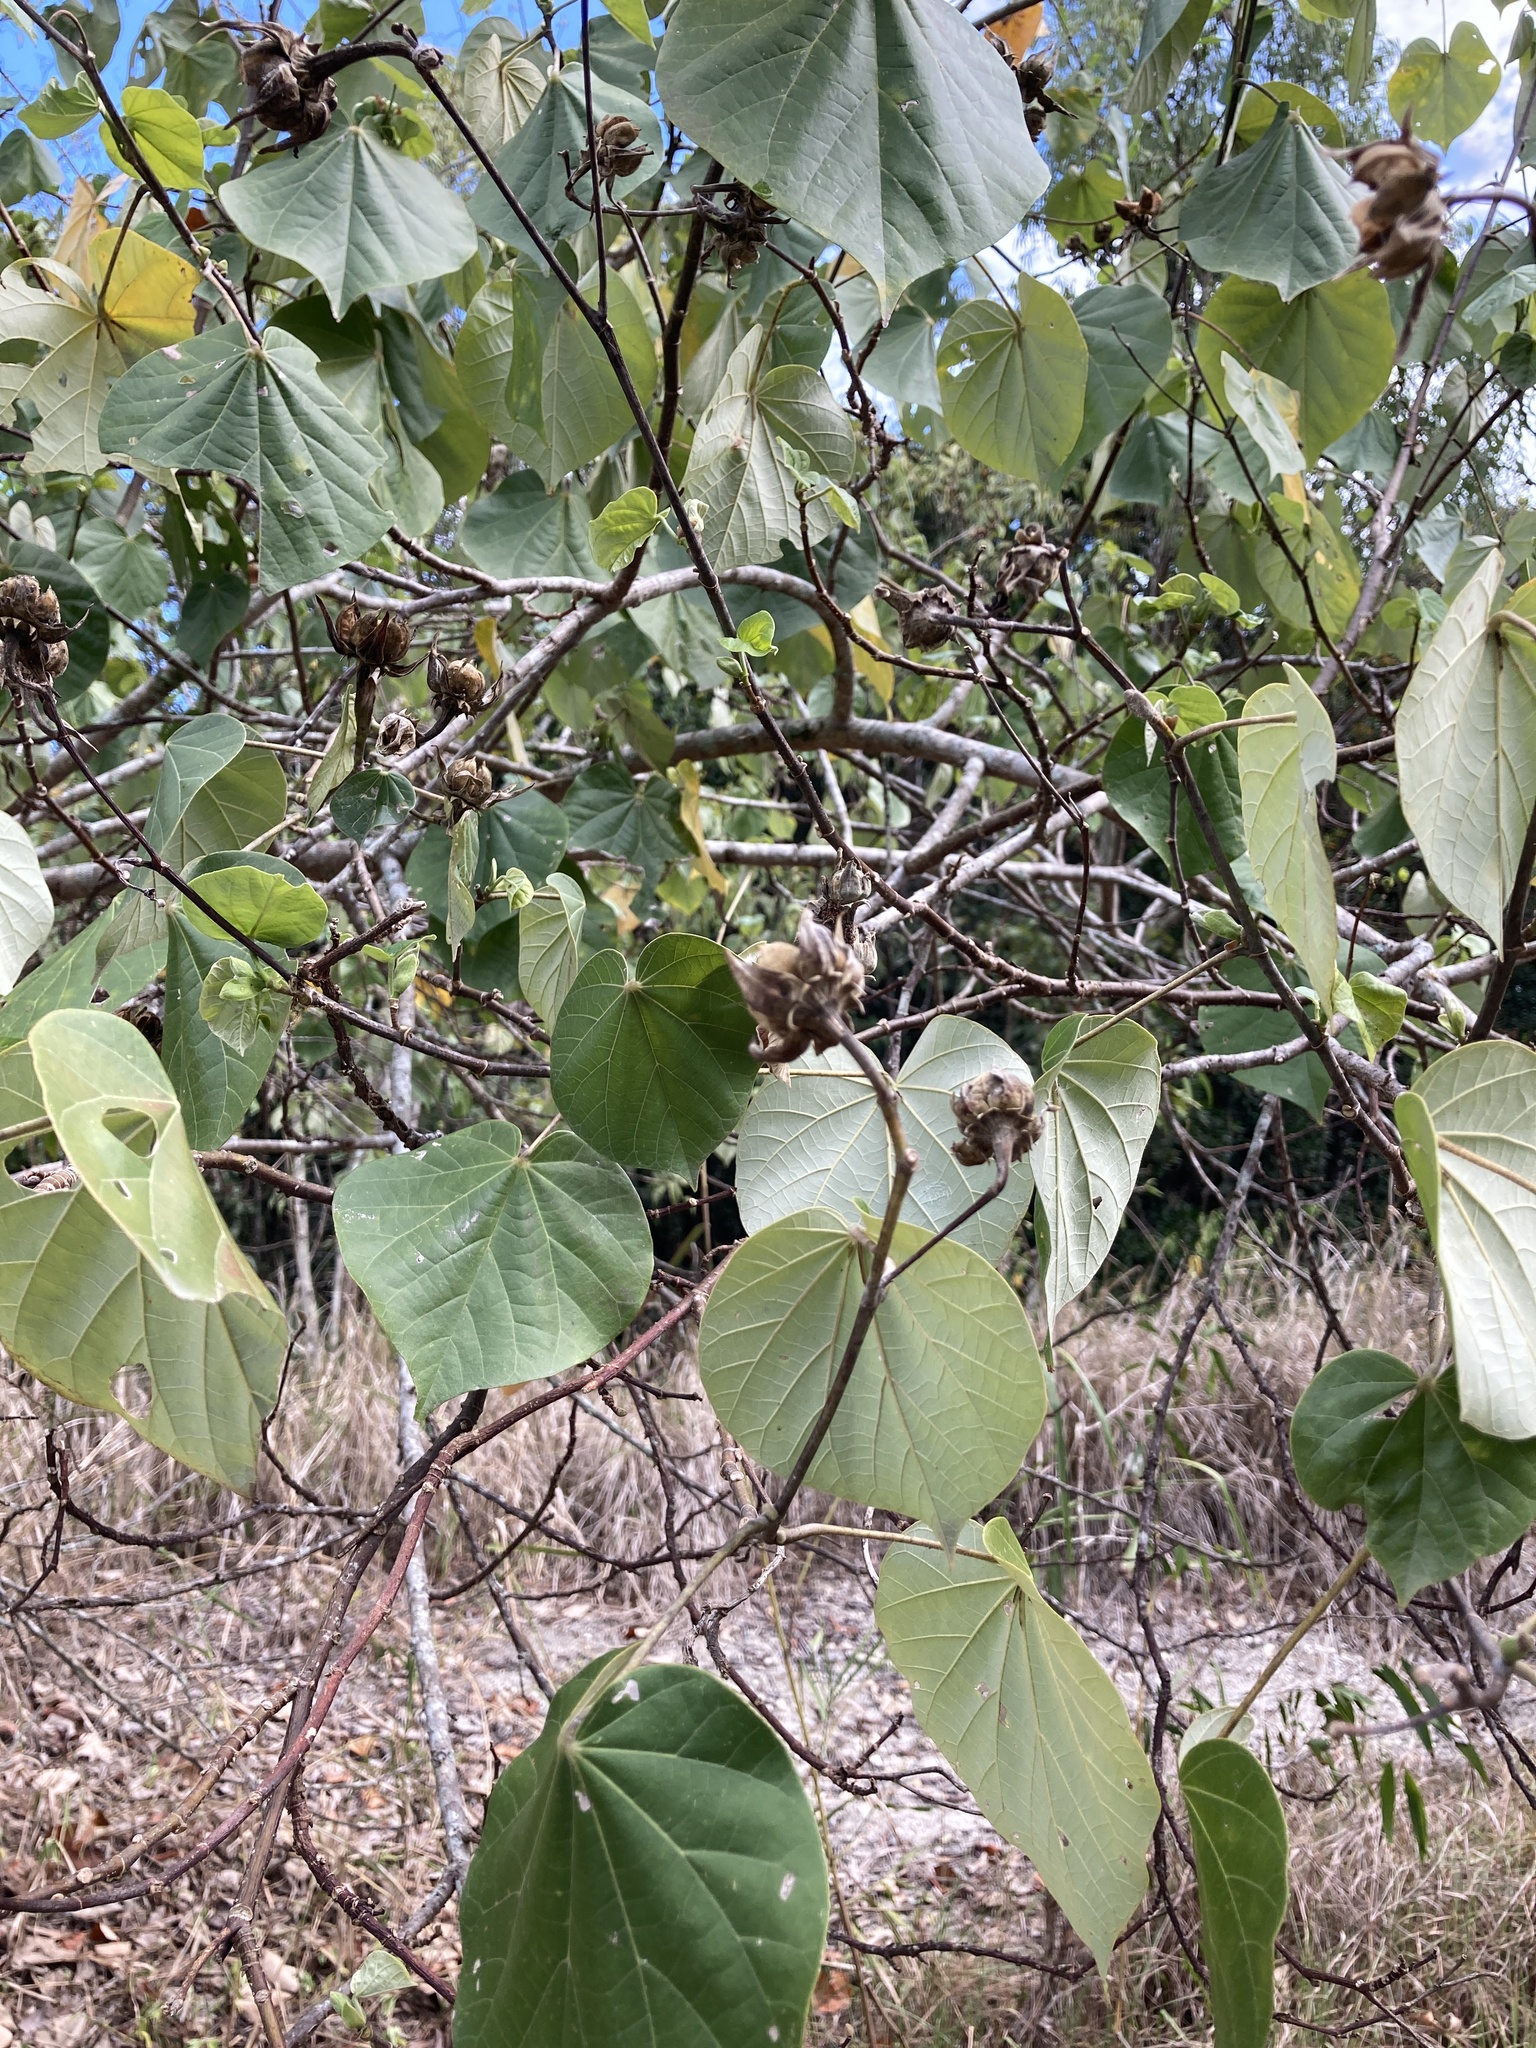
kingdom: Plantae
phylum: Tracheophyta
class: Magnoliopsida
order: Malvales
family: Malvaceae
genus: Talipariti
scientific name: Talipariti tiliaceum
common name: Sea hibiscus
